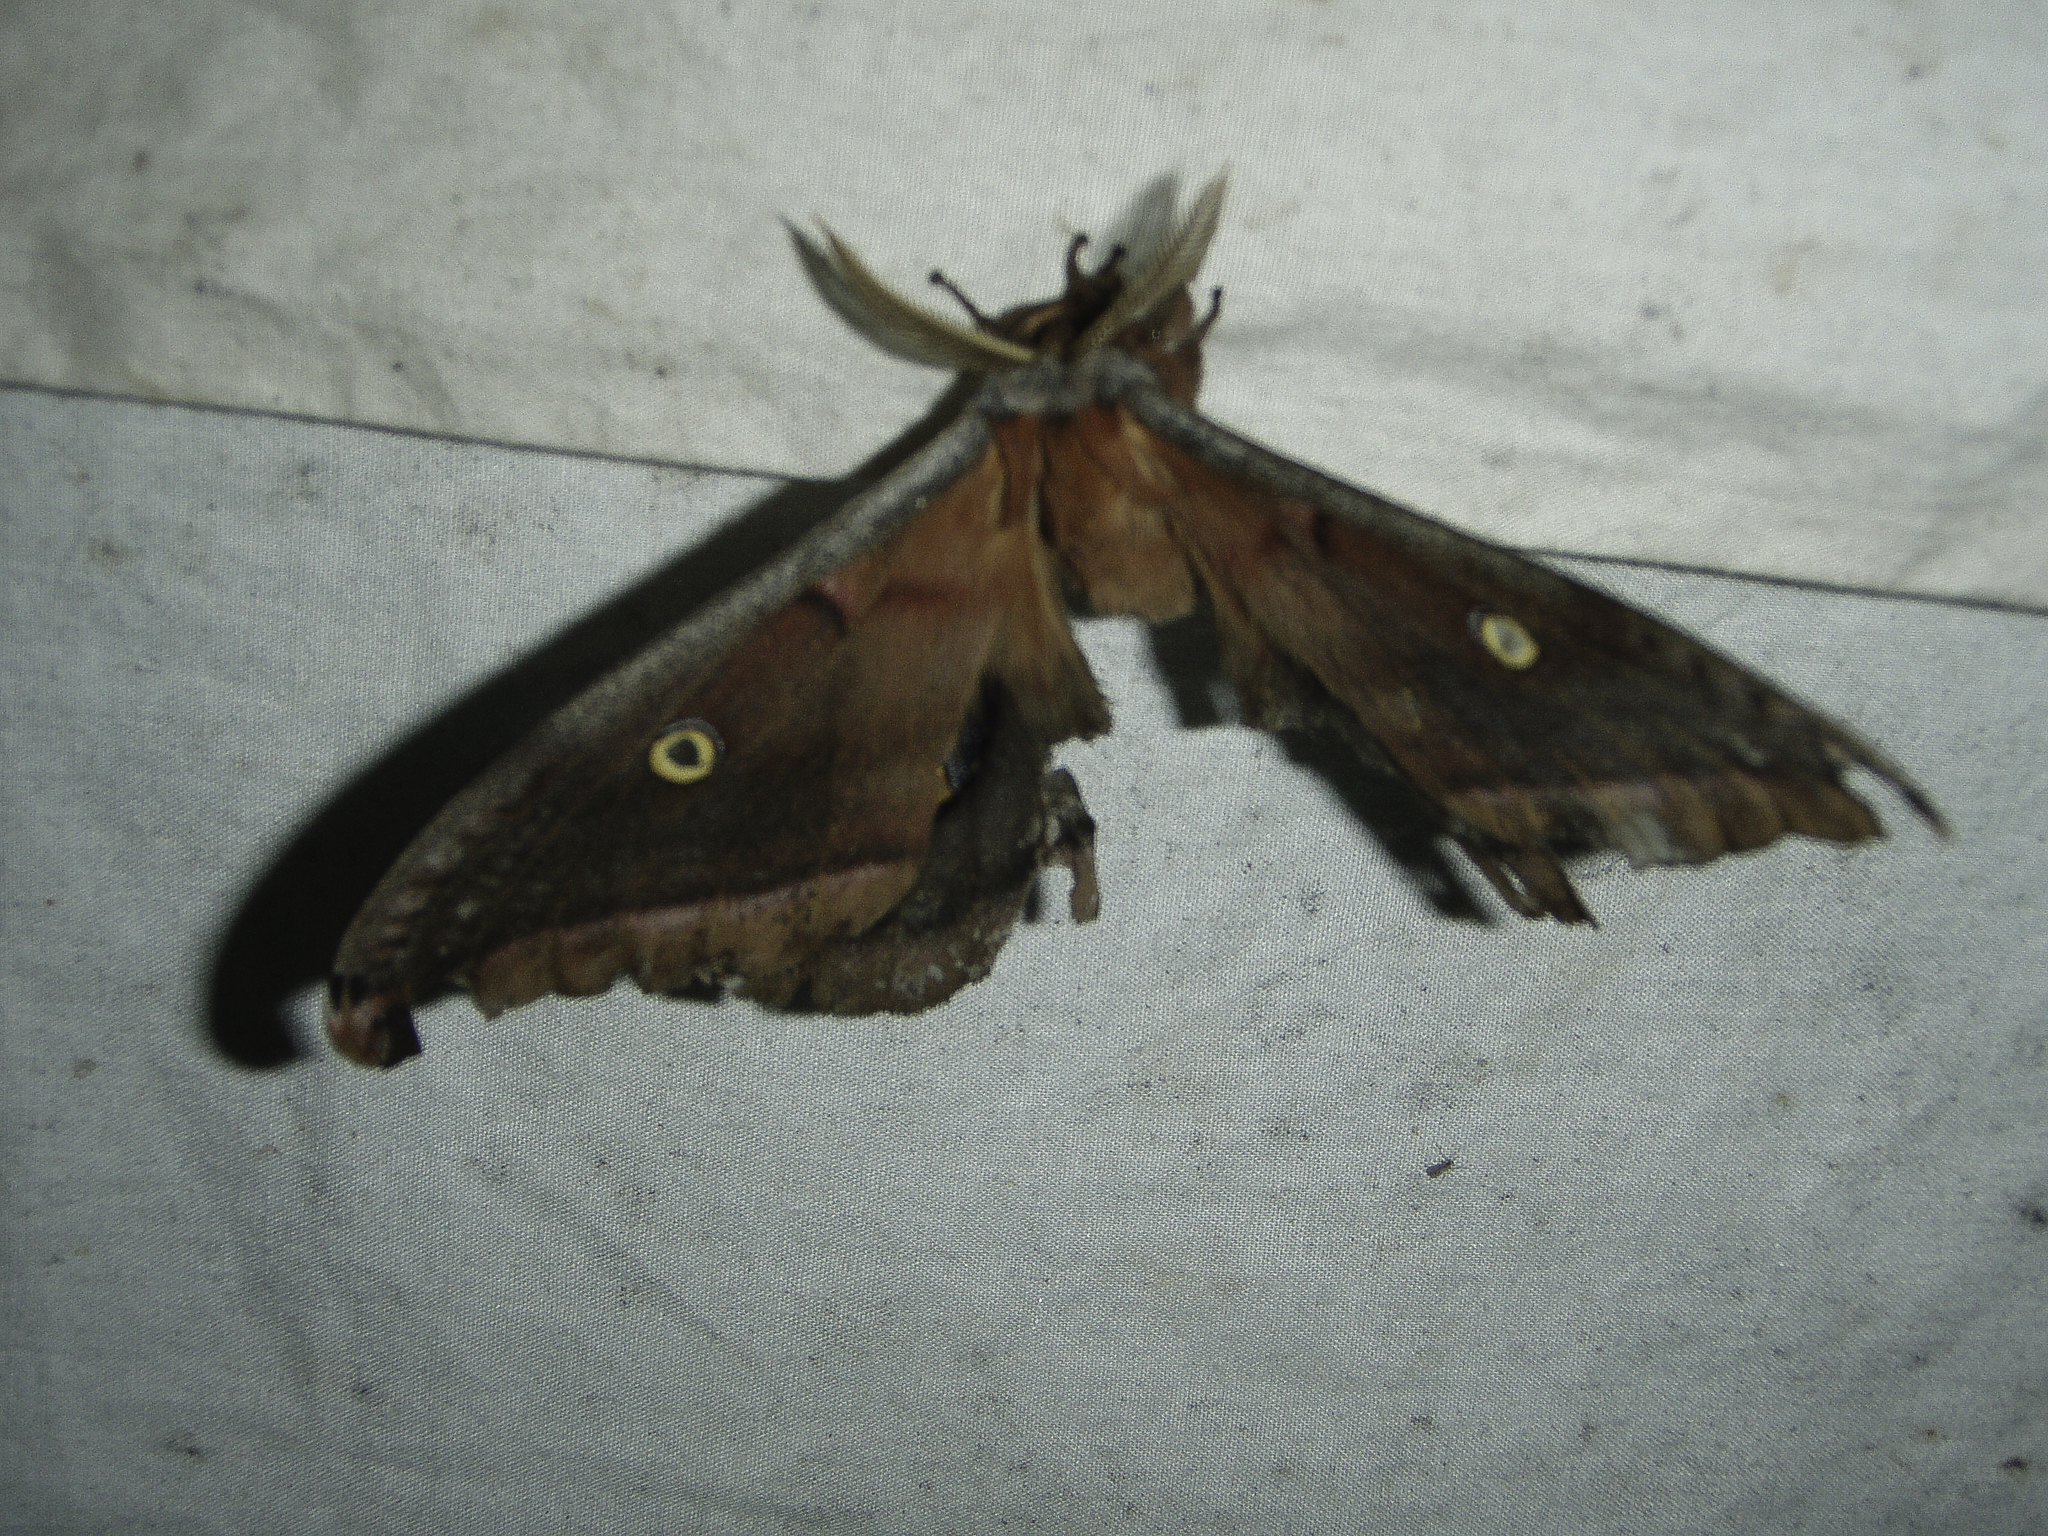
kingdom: Animalia
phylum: Arthropoda
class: Insecta
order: Lepidoptera
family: Saturniidae
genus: Antheraea
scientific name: Antheraea polyphemus
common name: Polyphemus moth
